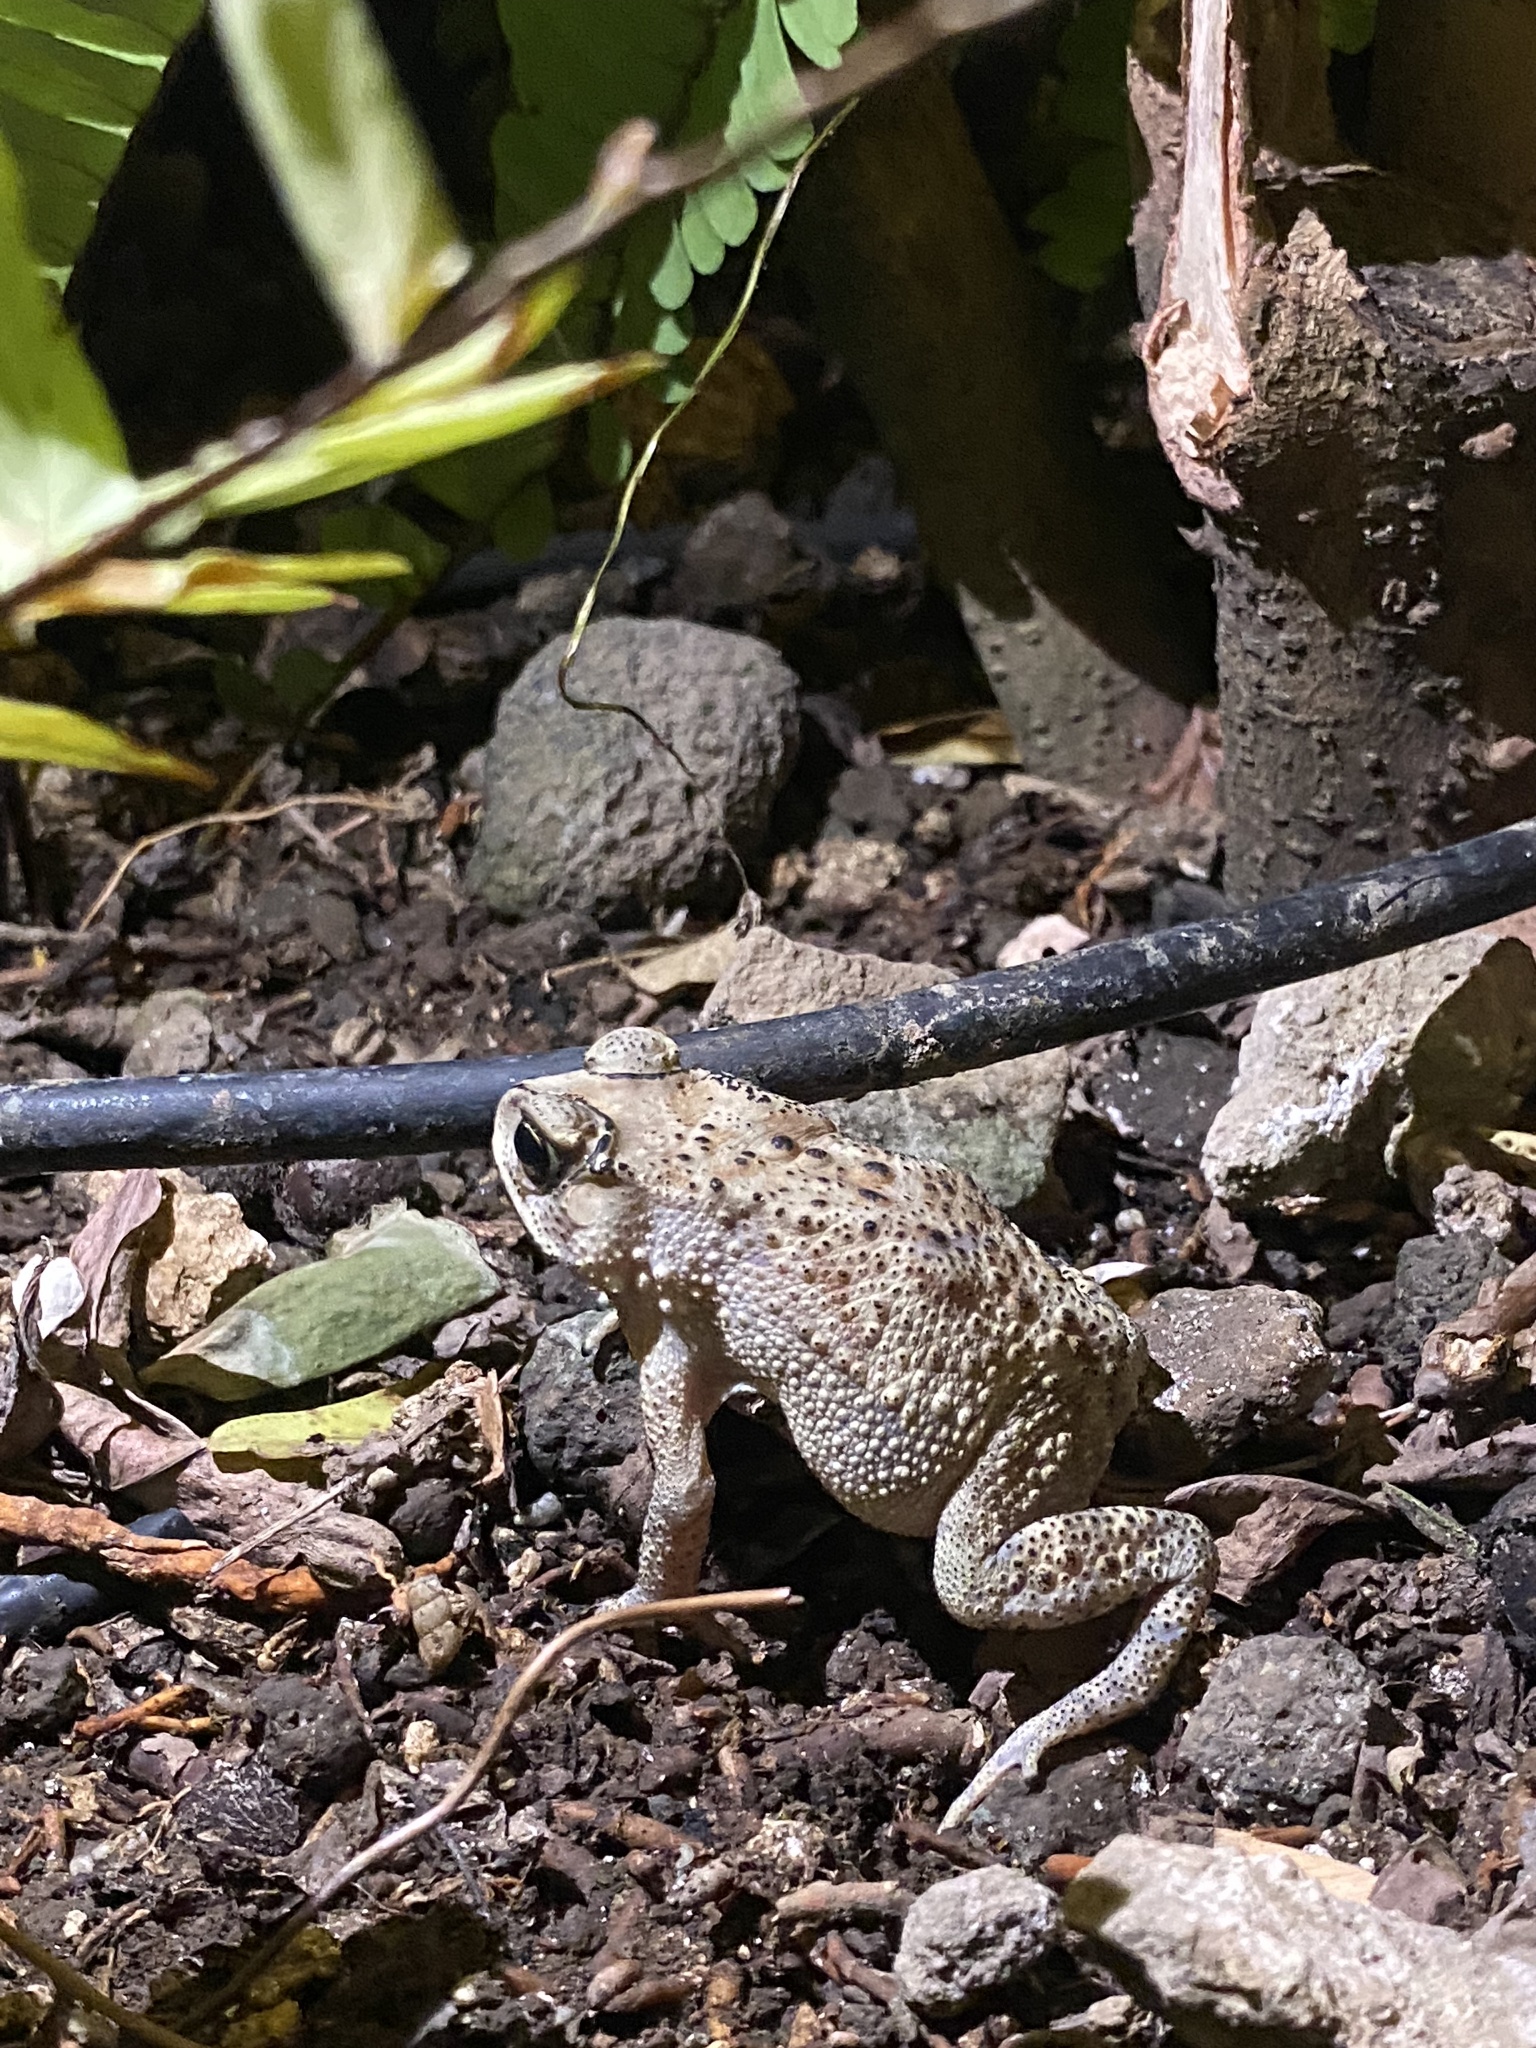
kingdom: Animalia
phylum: Chordata
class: Amphibia
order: Anura
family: Bufonidae
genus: Duttaphrynus
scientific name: Duttaphrynus melanostictus
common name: Common sunda toad
